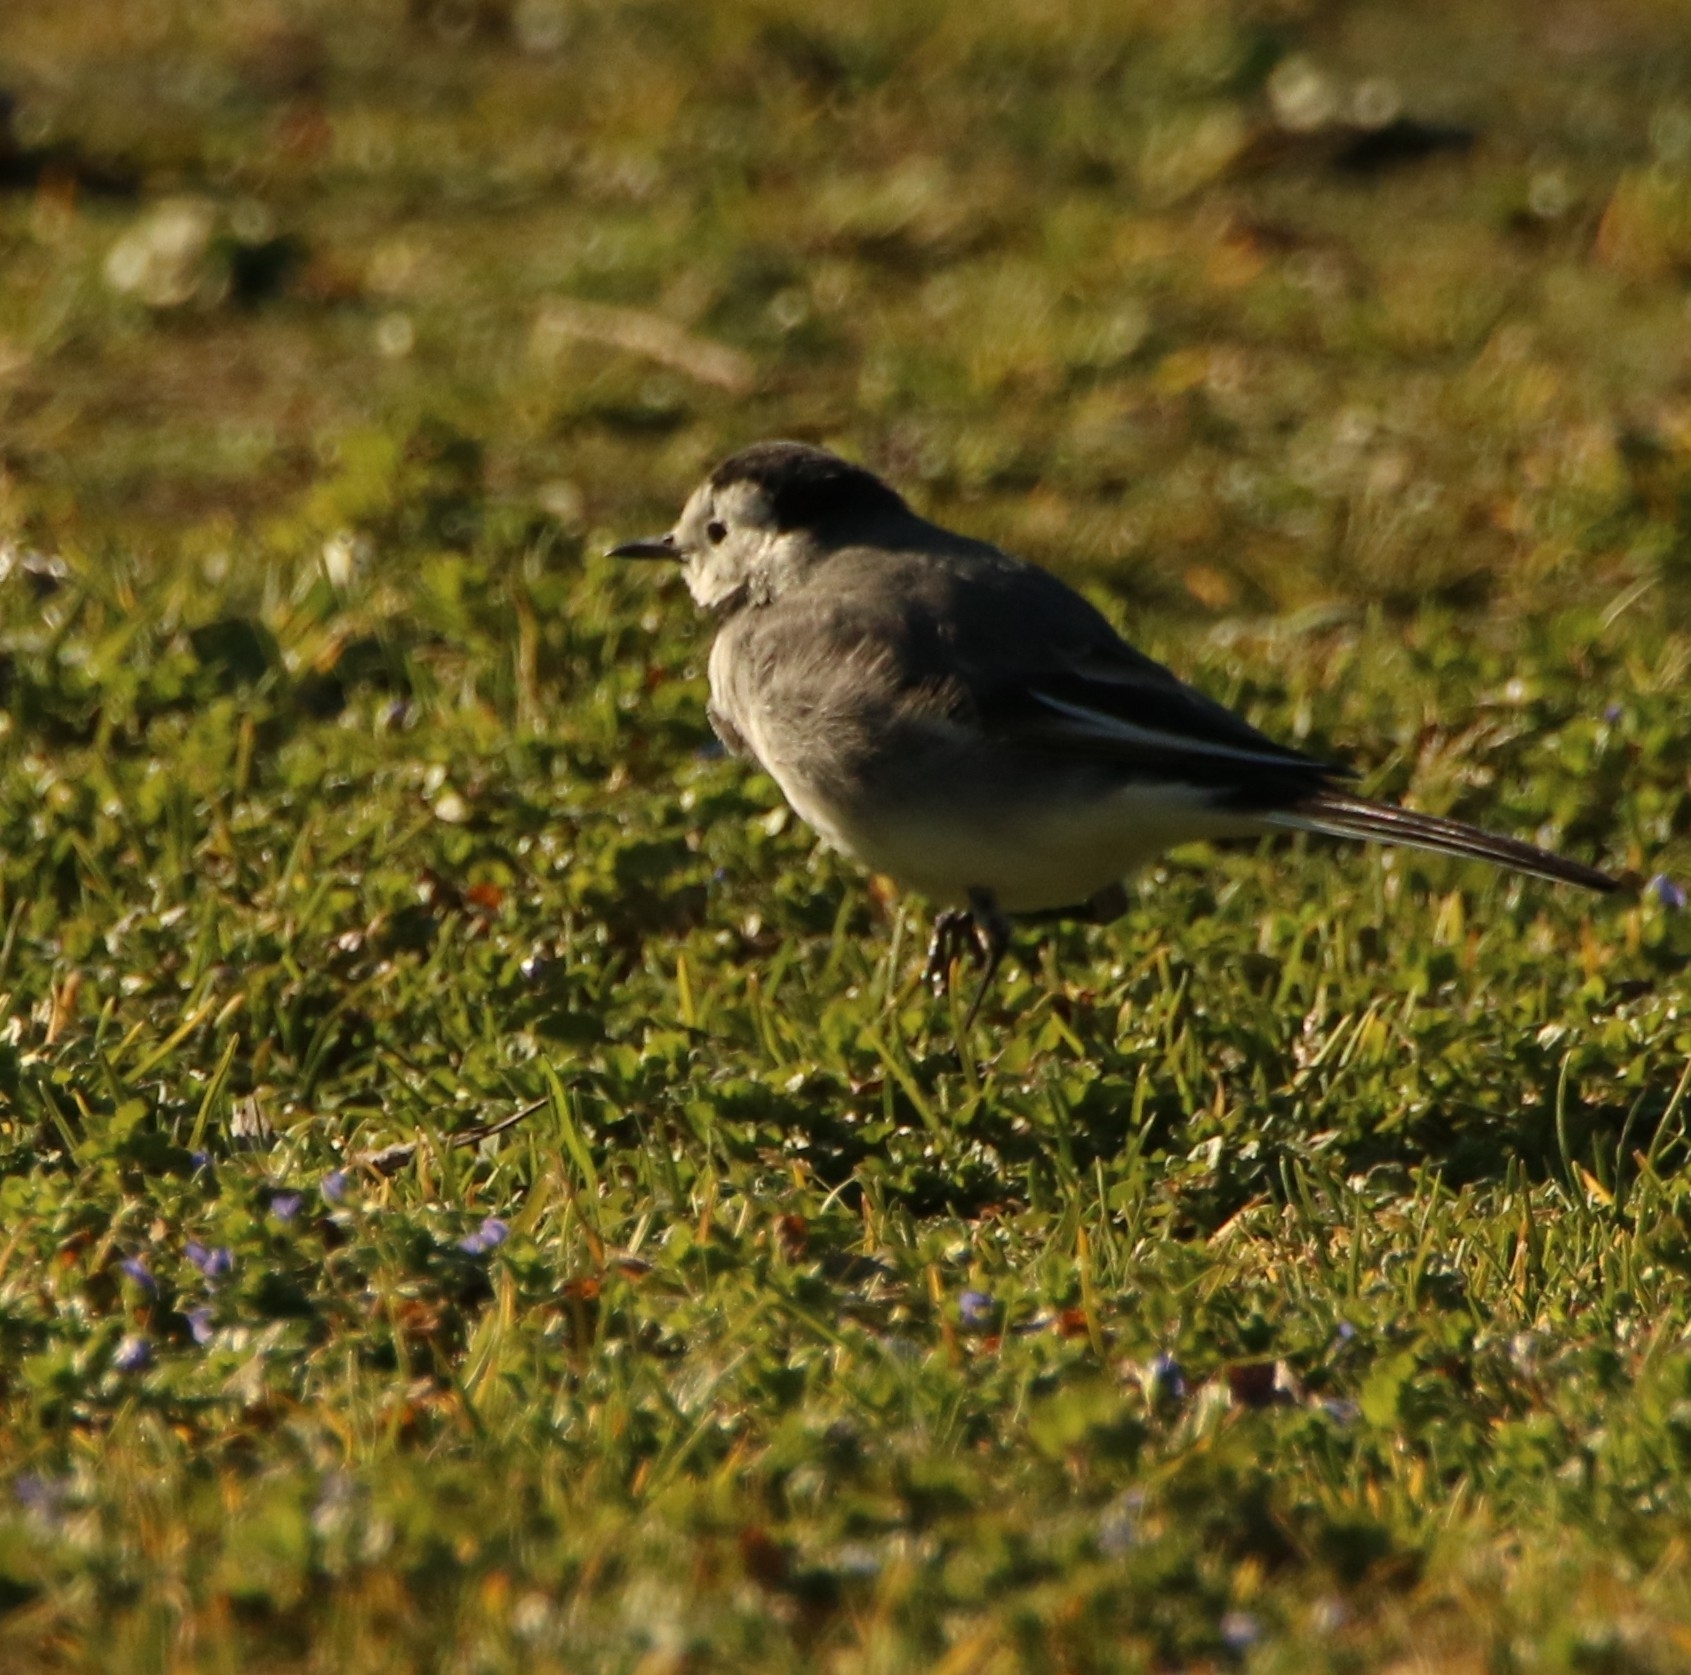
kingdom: Animalia
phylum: Chordata
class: Aves
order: Passeriformes
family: Motacillidae
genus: Motacilla
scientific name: Motacilla alba
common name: White wagtail
